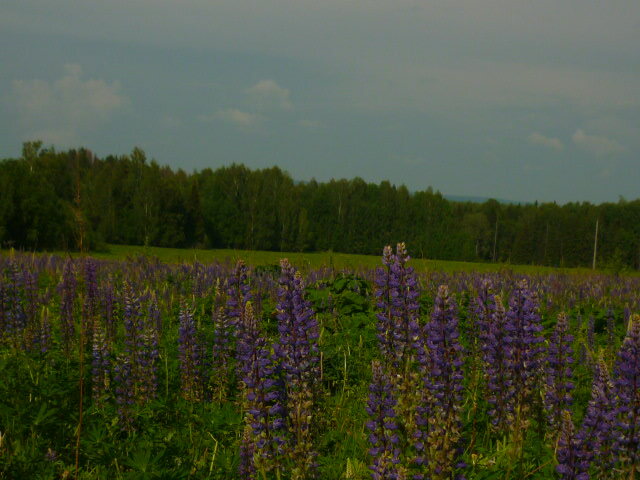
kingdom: Plantae
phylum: Tracheophyta
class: Magnoliopsida
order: Fabales
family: Fabaceae
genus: Lupinus
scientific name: Lupinus polyphyllus
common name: Garden lupin
